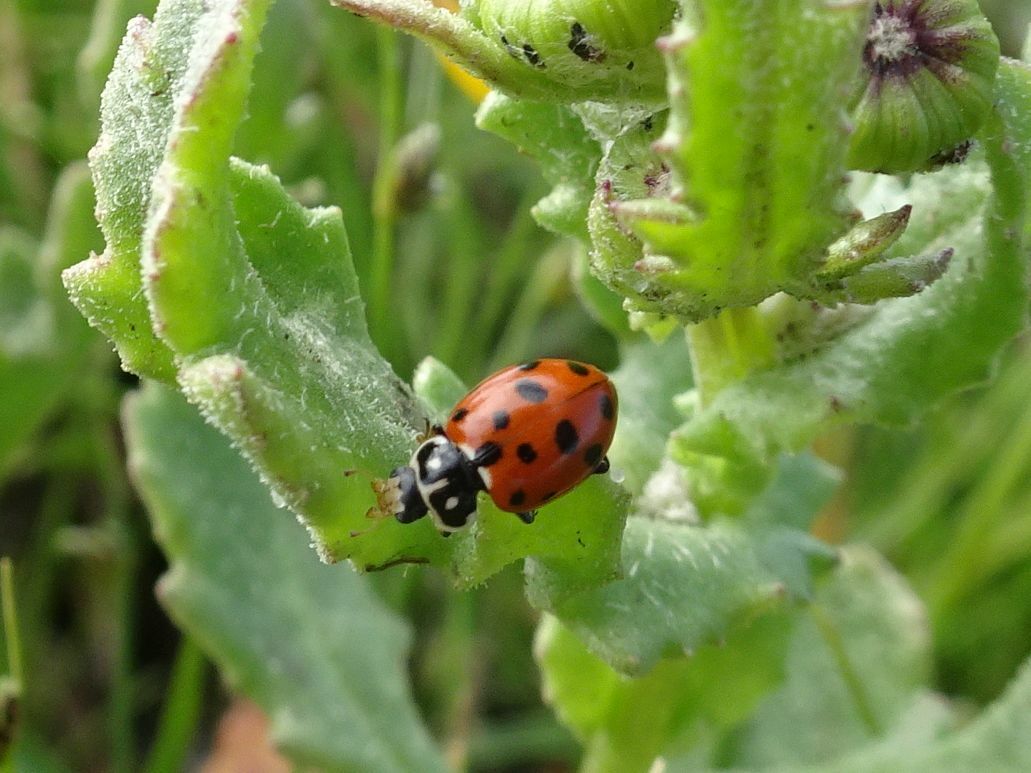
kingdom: Animalia
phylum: Arthropoda
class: Insecta
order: Coleoptera
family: Coccinellidae
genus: Hippodamia
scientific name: Hippodamia variegata
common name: Ladybird beetle
